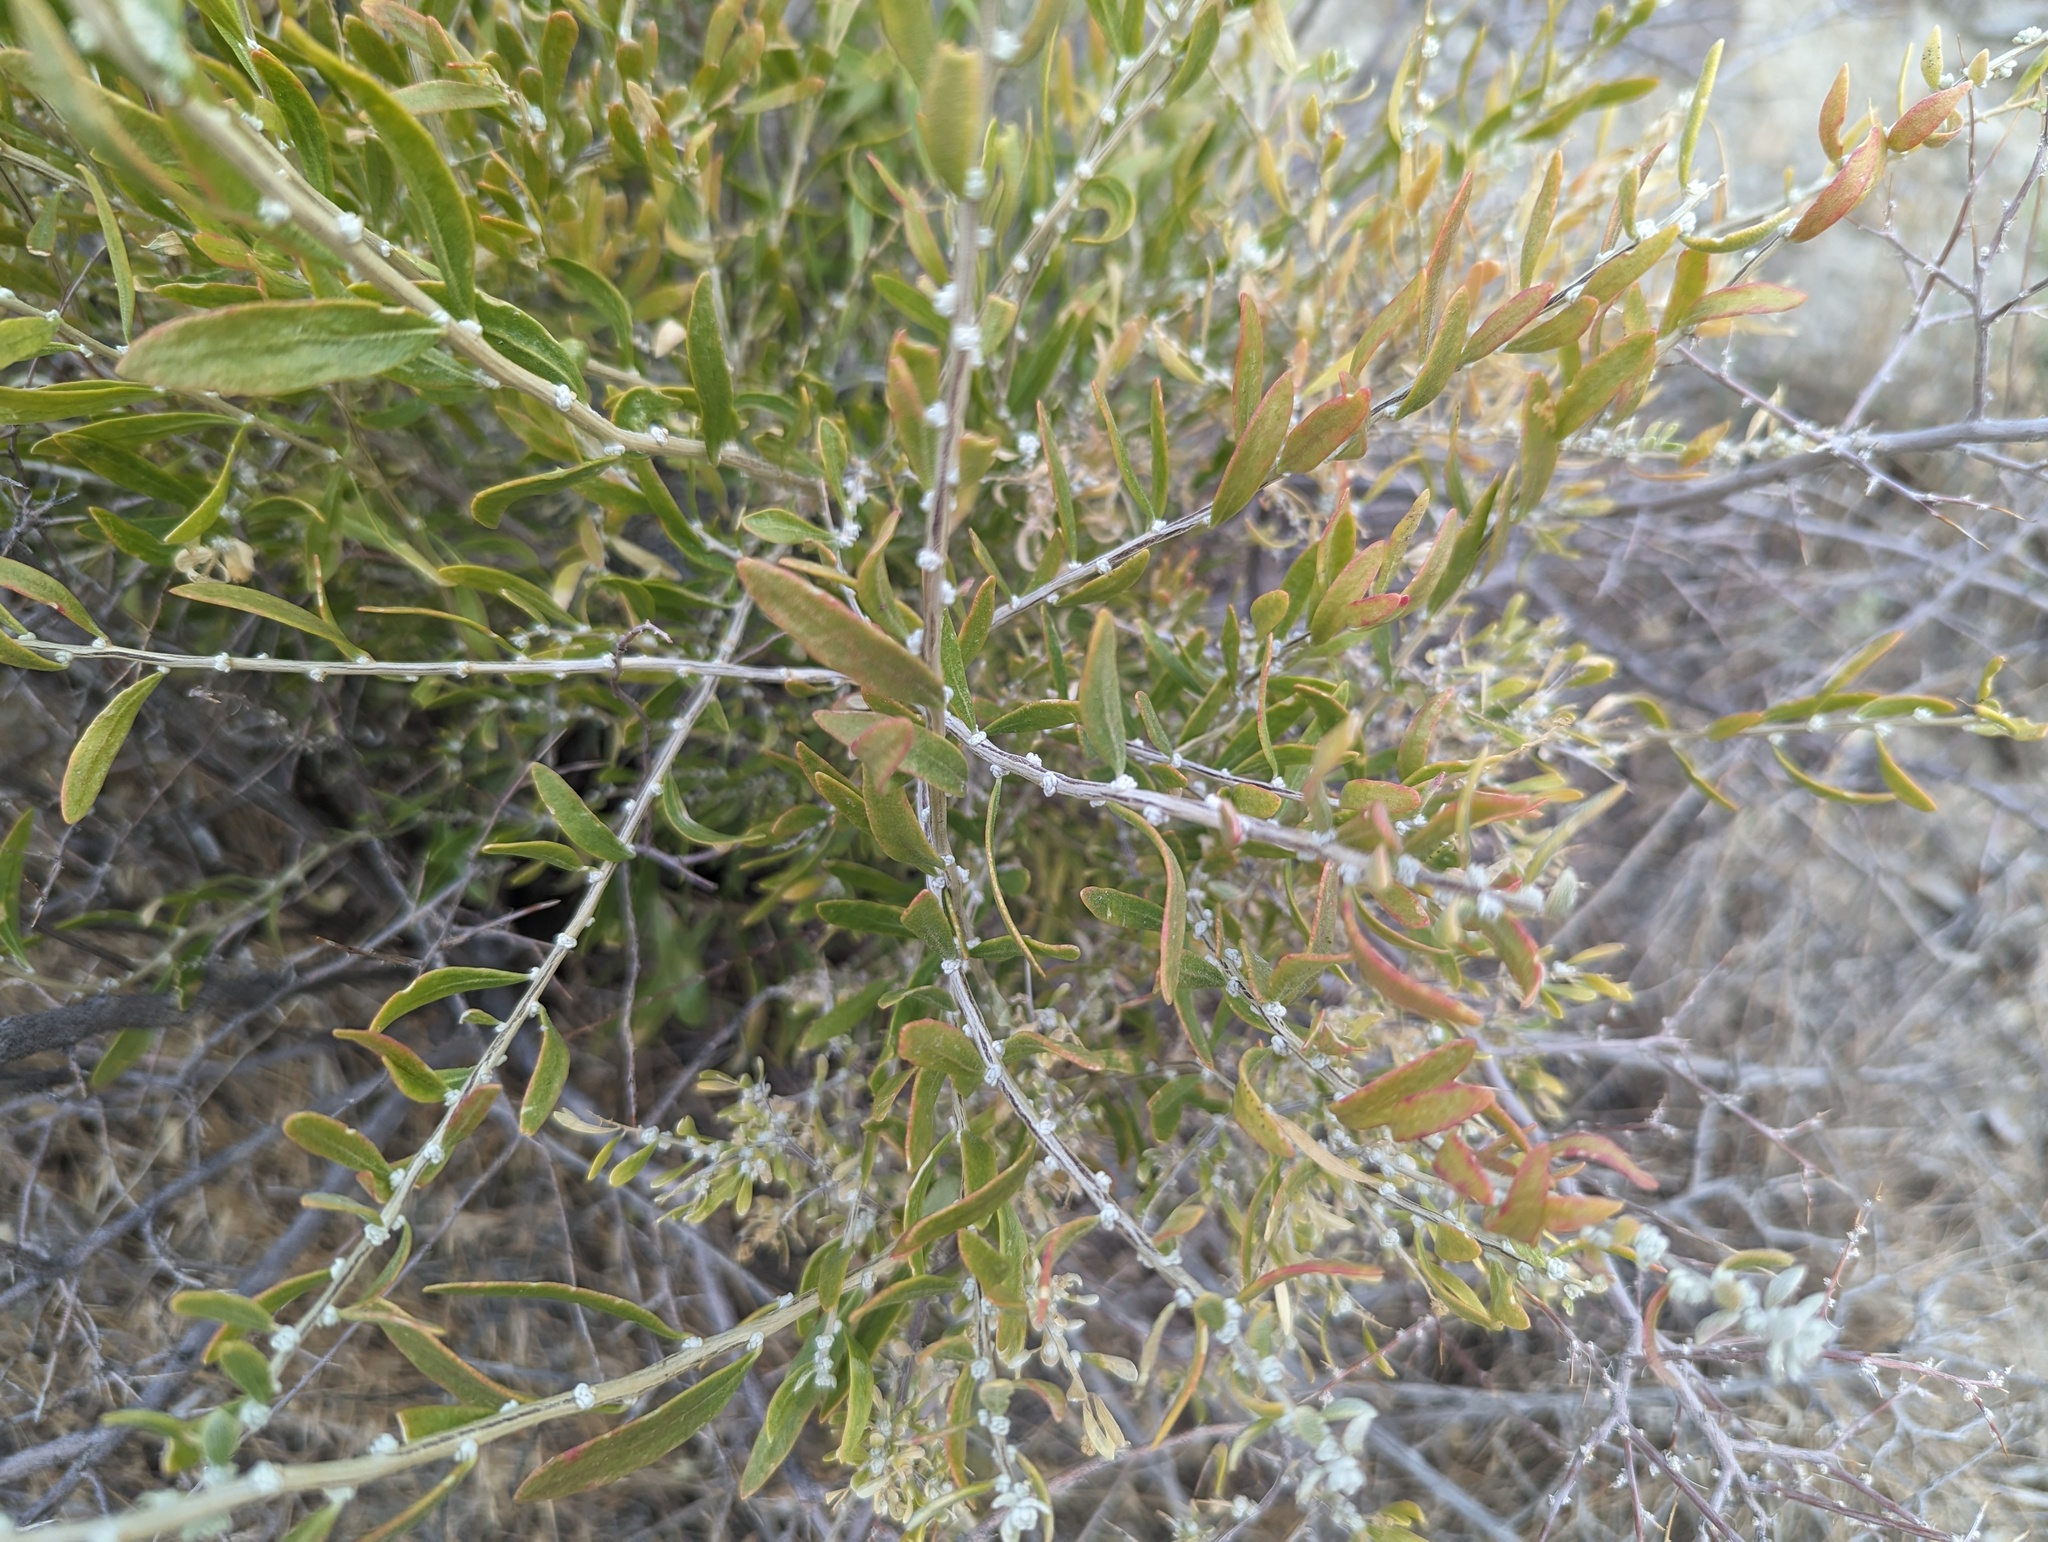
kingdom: Plantae
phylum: Tracheophyta
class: Magnoliopsida
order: Caryophyllales
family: Amaranthaceae
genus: Grayia
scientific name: Grayia spinosa
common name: Spiny hopsage
